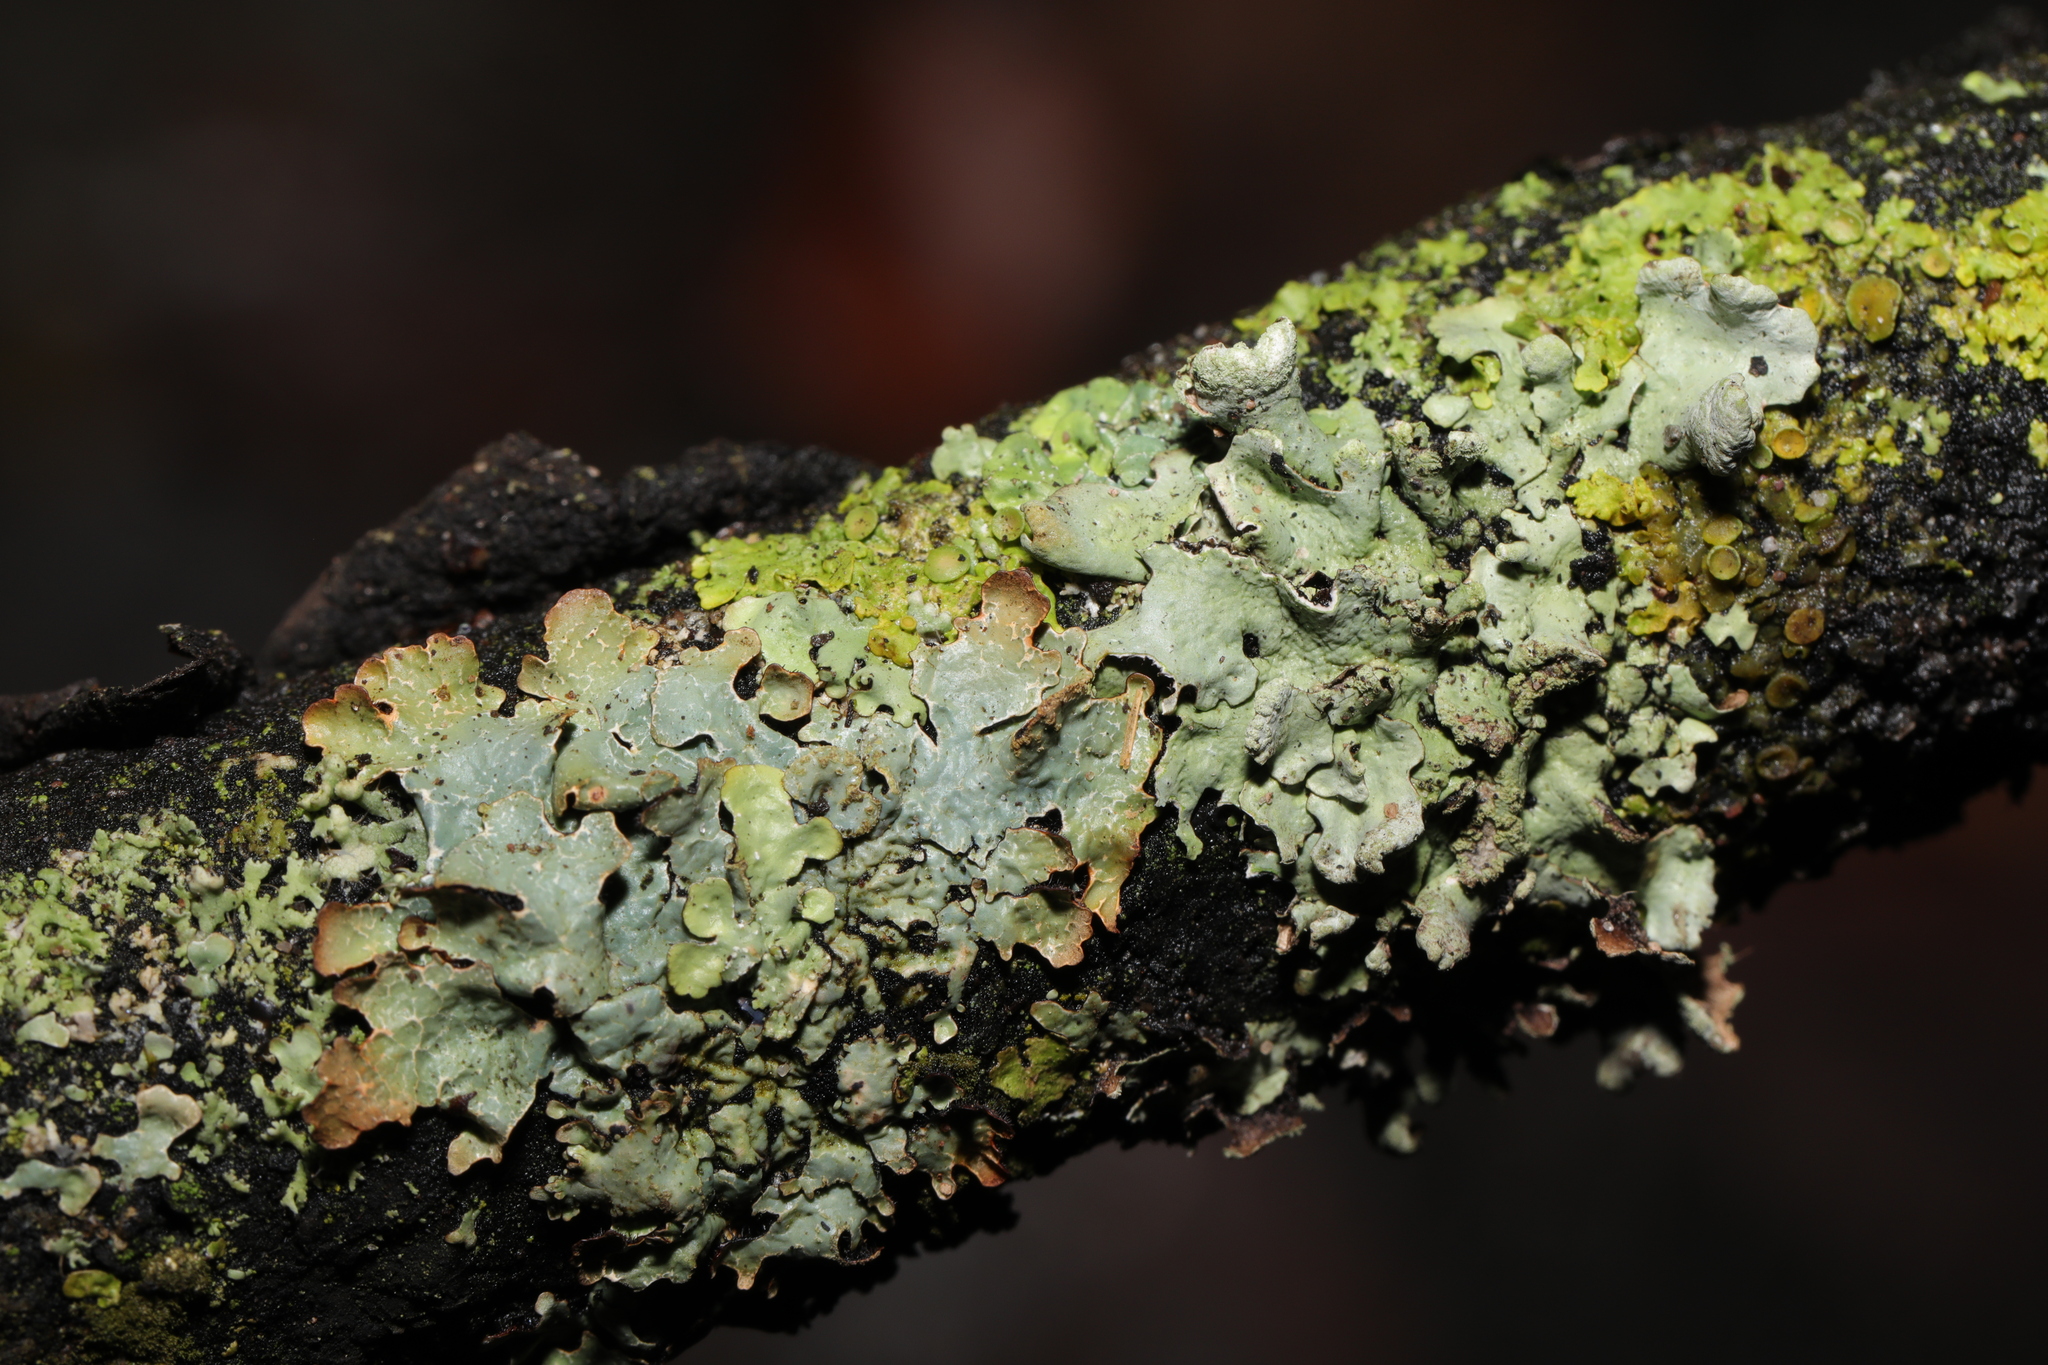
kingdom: Fungi
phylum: Ascomycota
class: Lecanoromycetes
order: Lecanorales
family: Parmeliaceae
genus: Parmelia
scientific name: Parmelia sulcata
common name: Netted shield lichen
